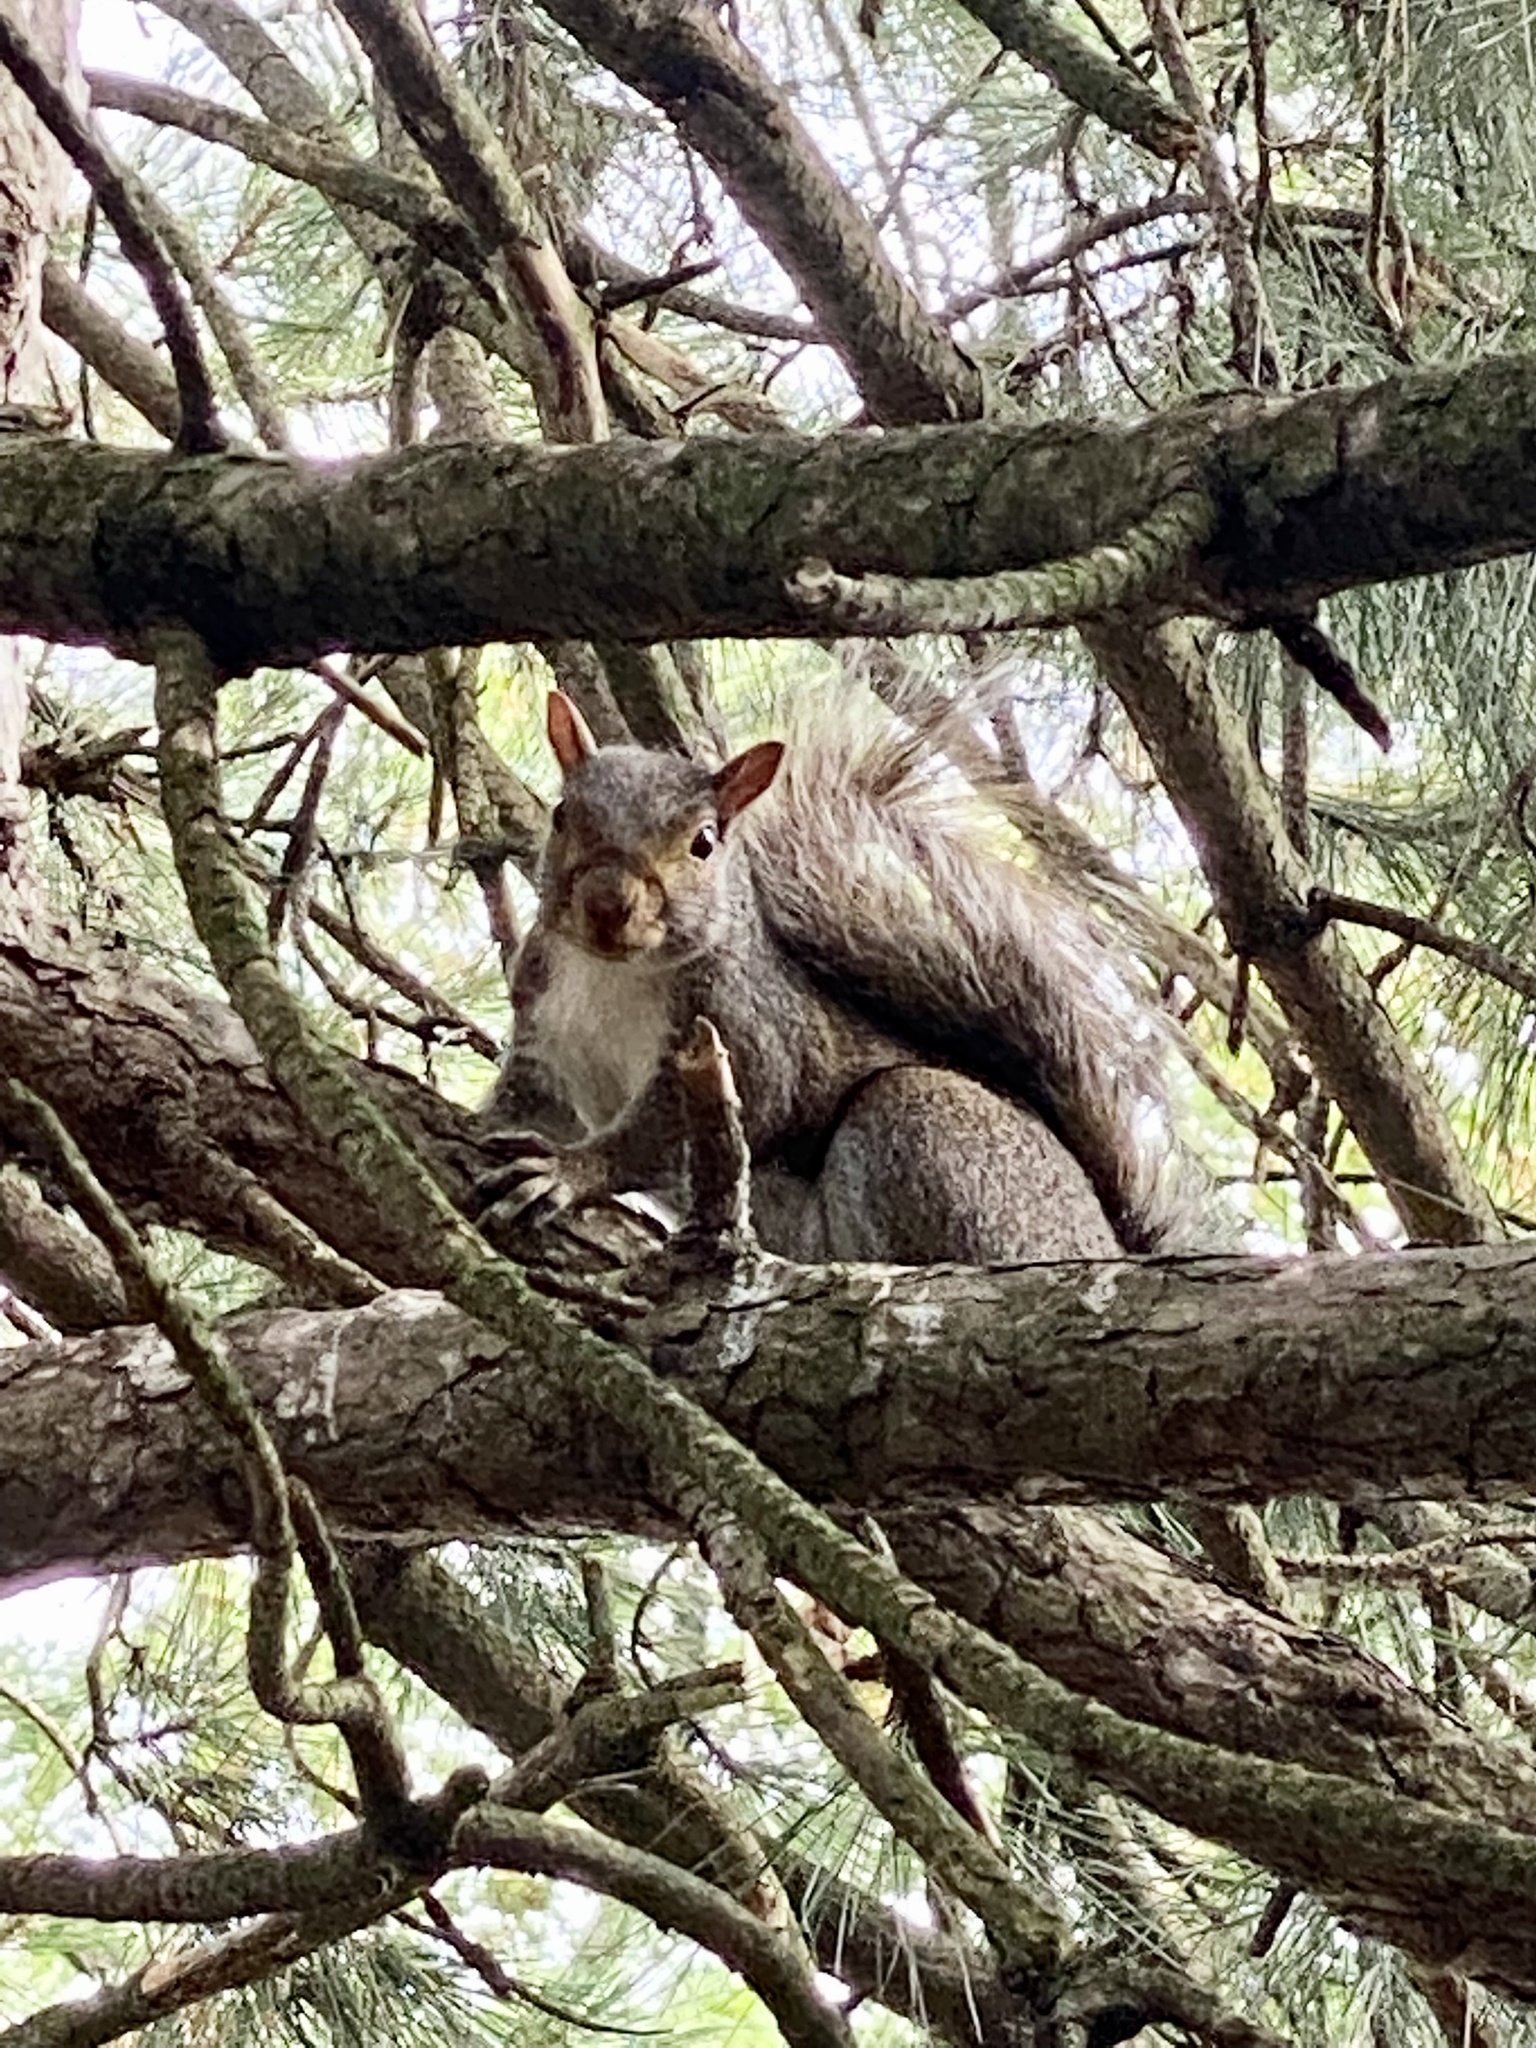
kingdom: Animalia
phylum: Chordata
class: Mammalia
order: Rodentia
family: Sciuridae
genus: Sciurus
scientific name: Sciurus carolinensis
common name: Eastern gray squirrel
